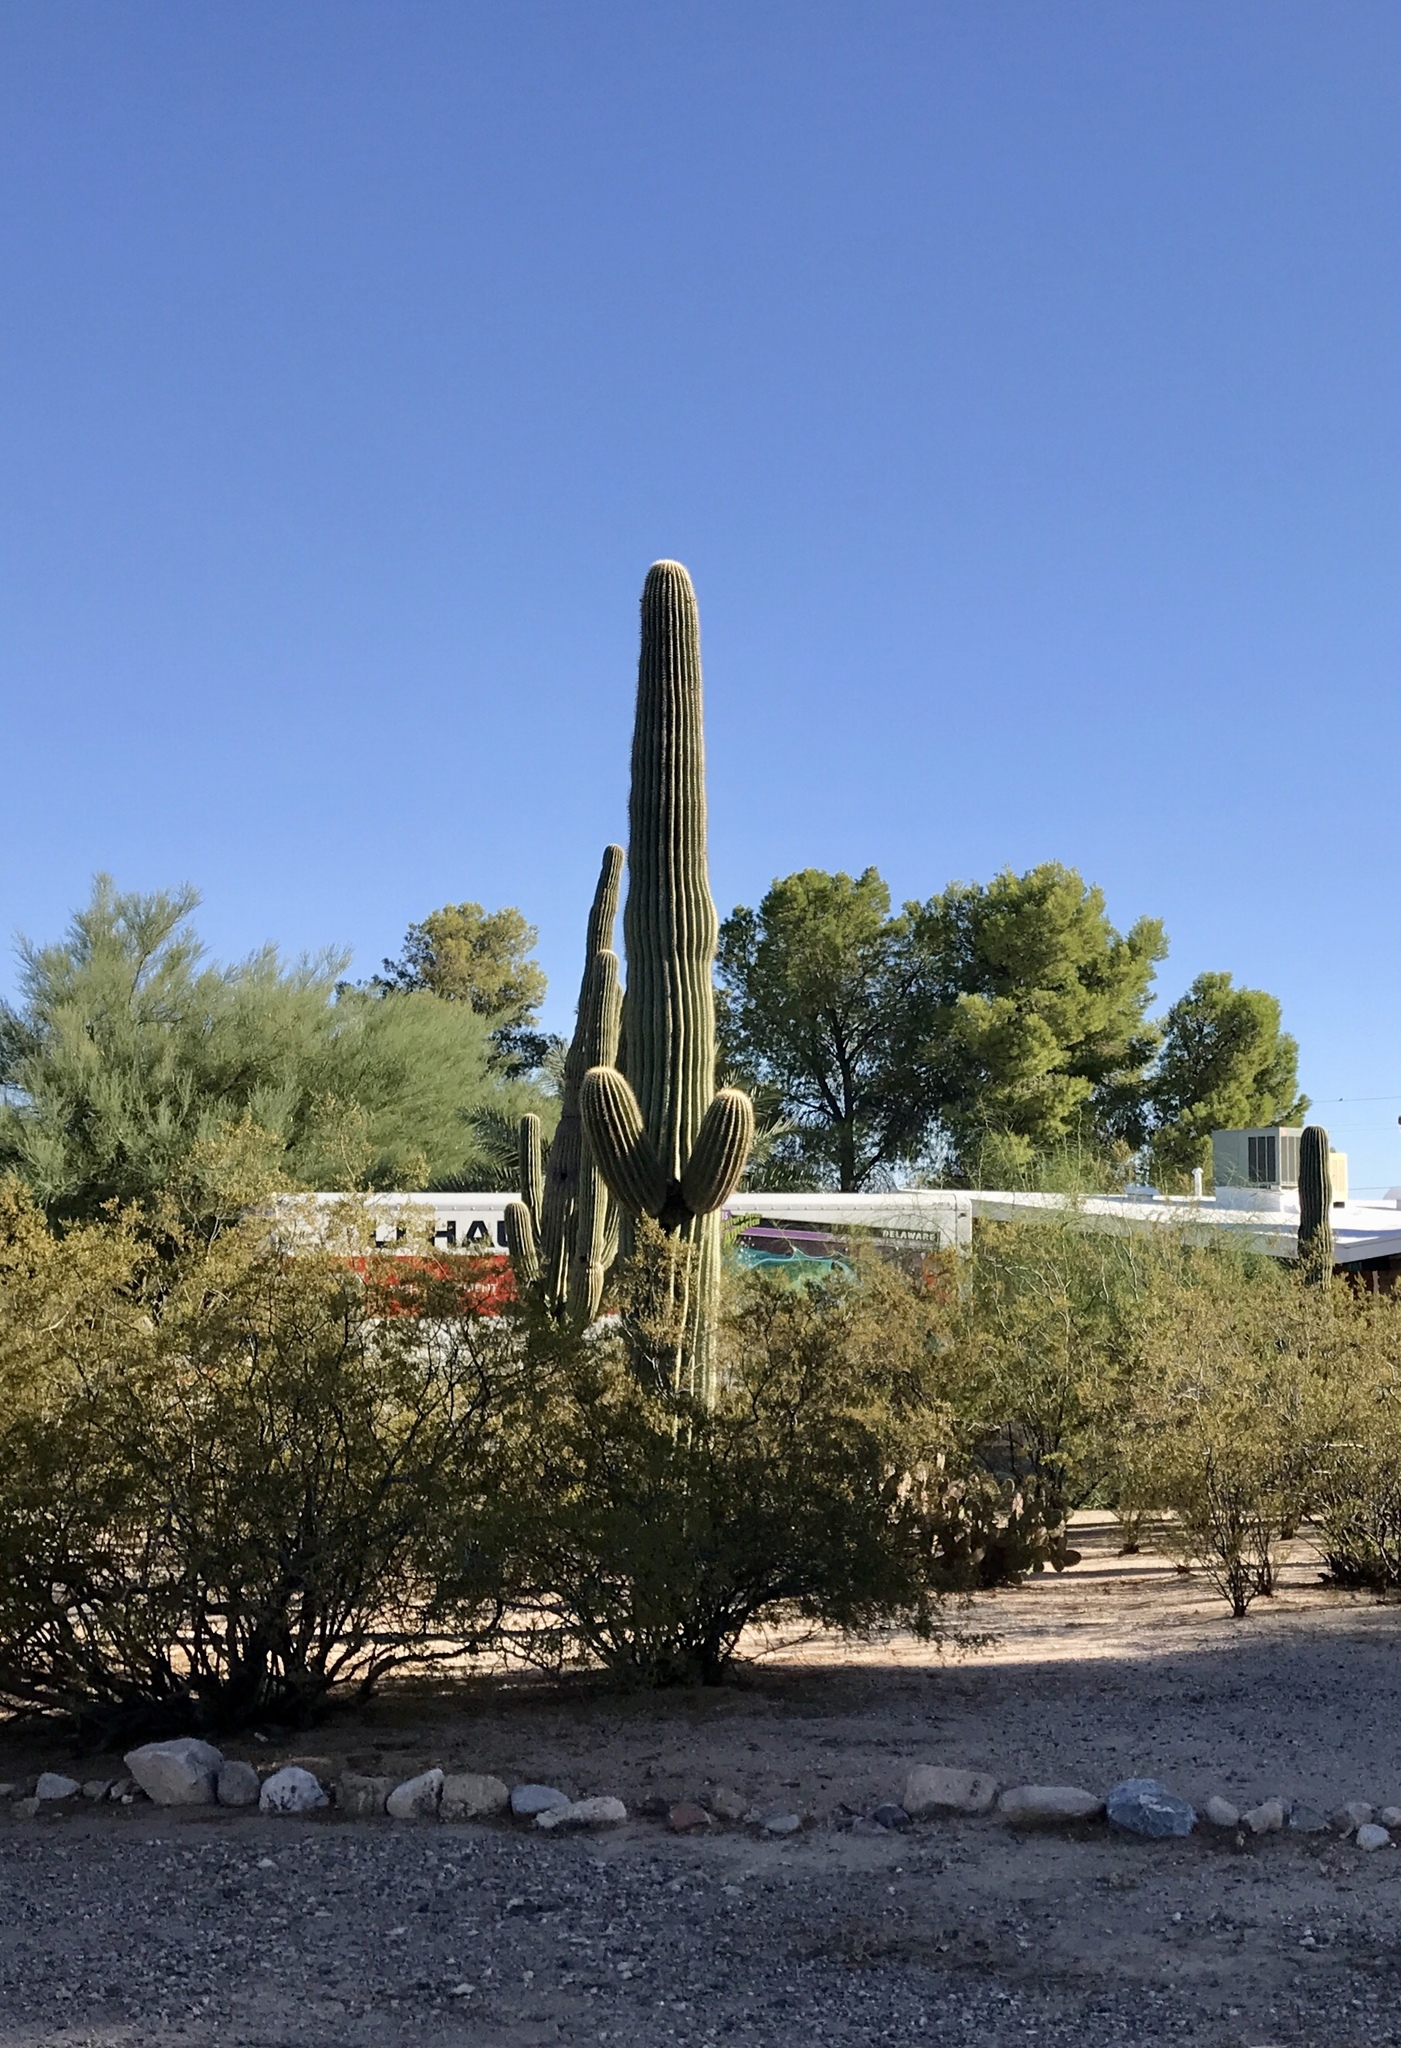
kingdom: Plantae
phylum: Tracheophyta
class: Magnoliopsida
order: Caryophyllales
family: Cactaceae
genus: Carnegiea
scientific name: Carnegiea gigantea
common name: Saguaro
